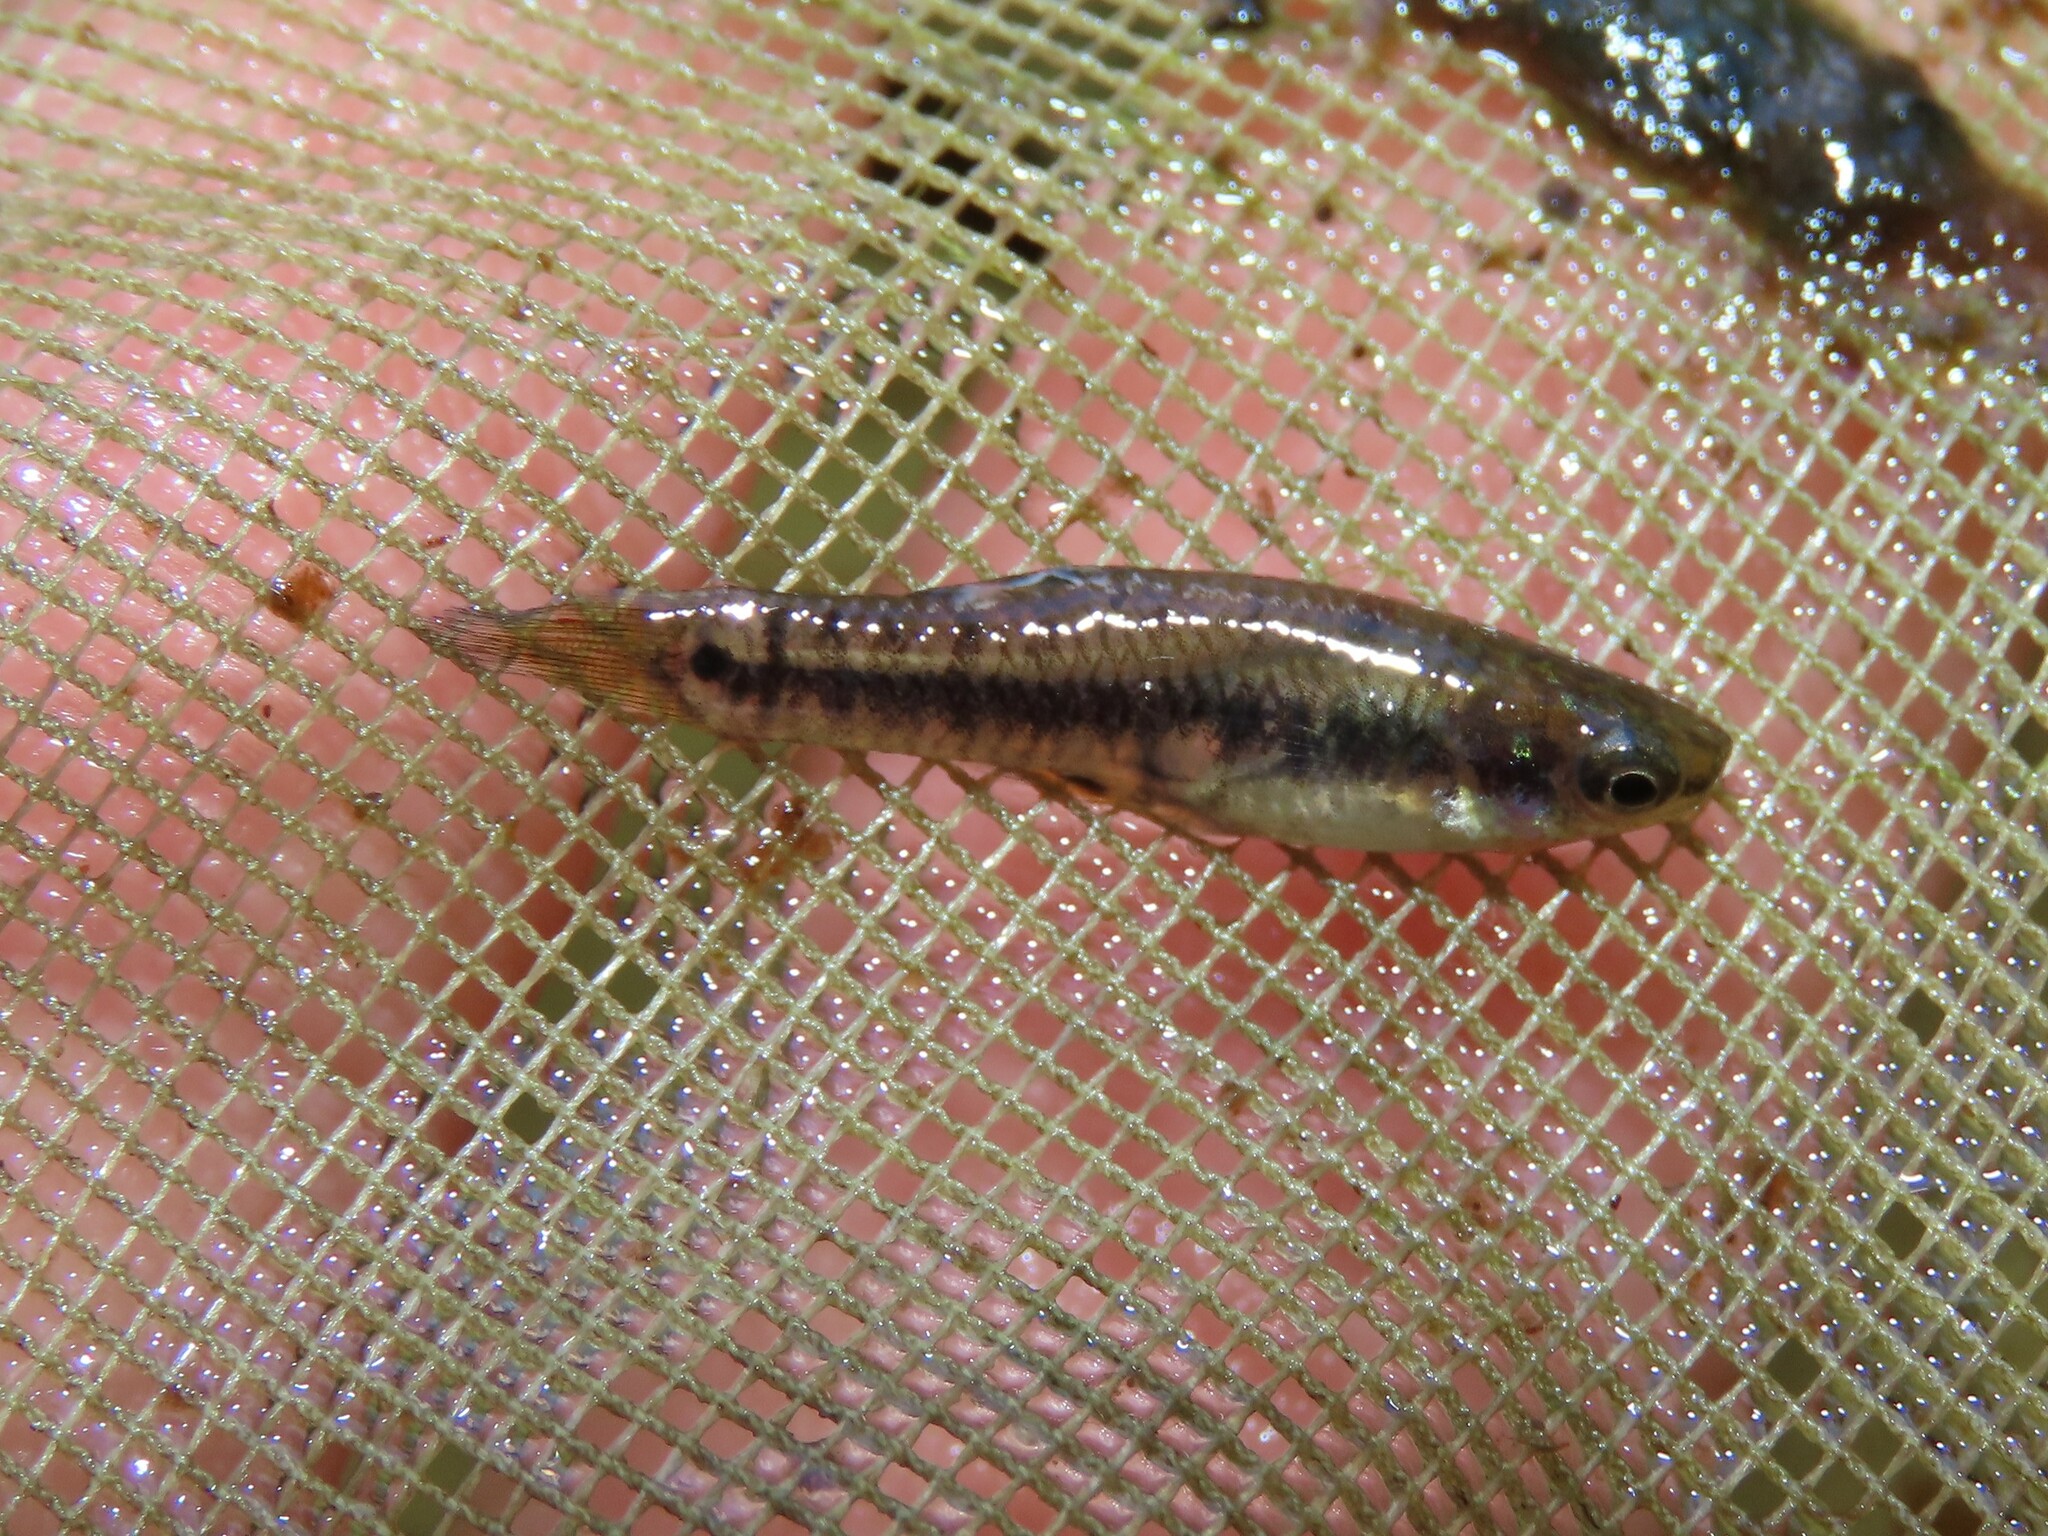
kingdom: Animalia
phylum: Chordata
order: Cyprinodontiformes
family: Poeciliidae
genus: Heterandria
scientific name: Heterandria formosa
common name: Least killifish
